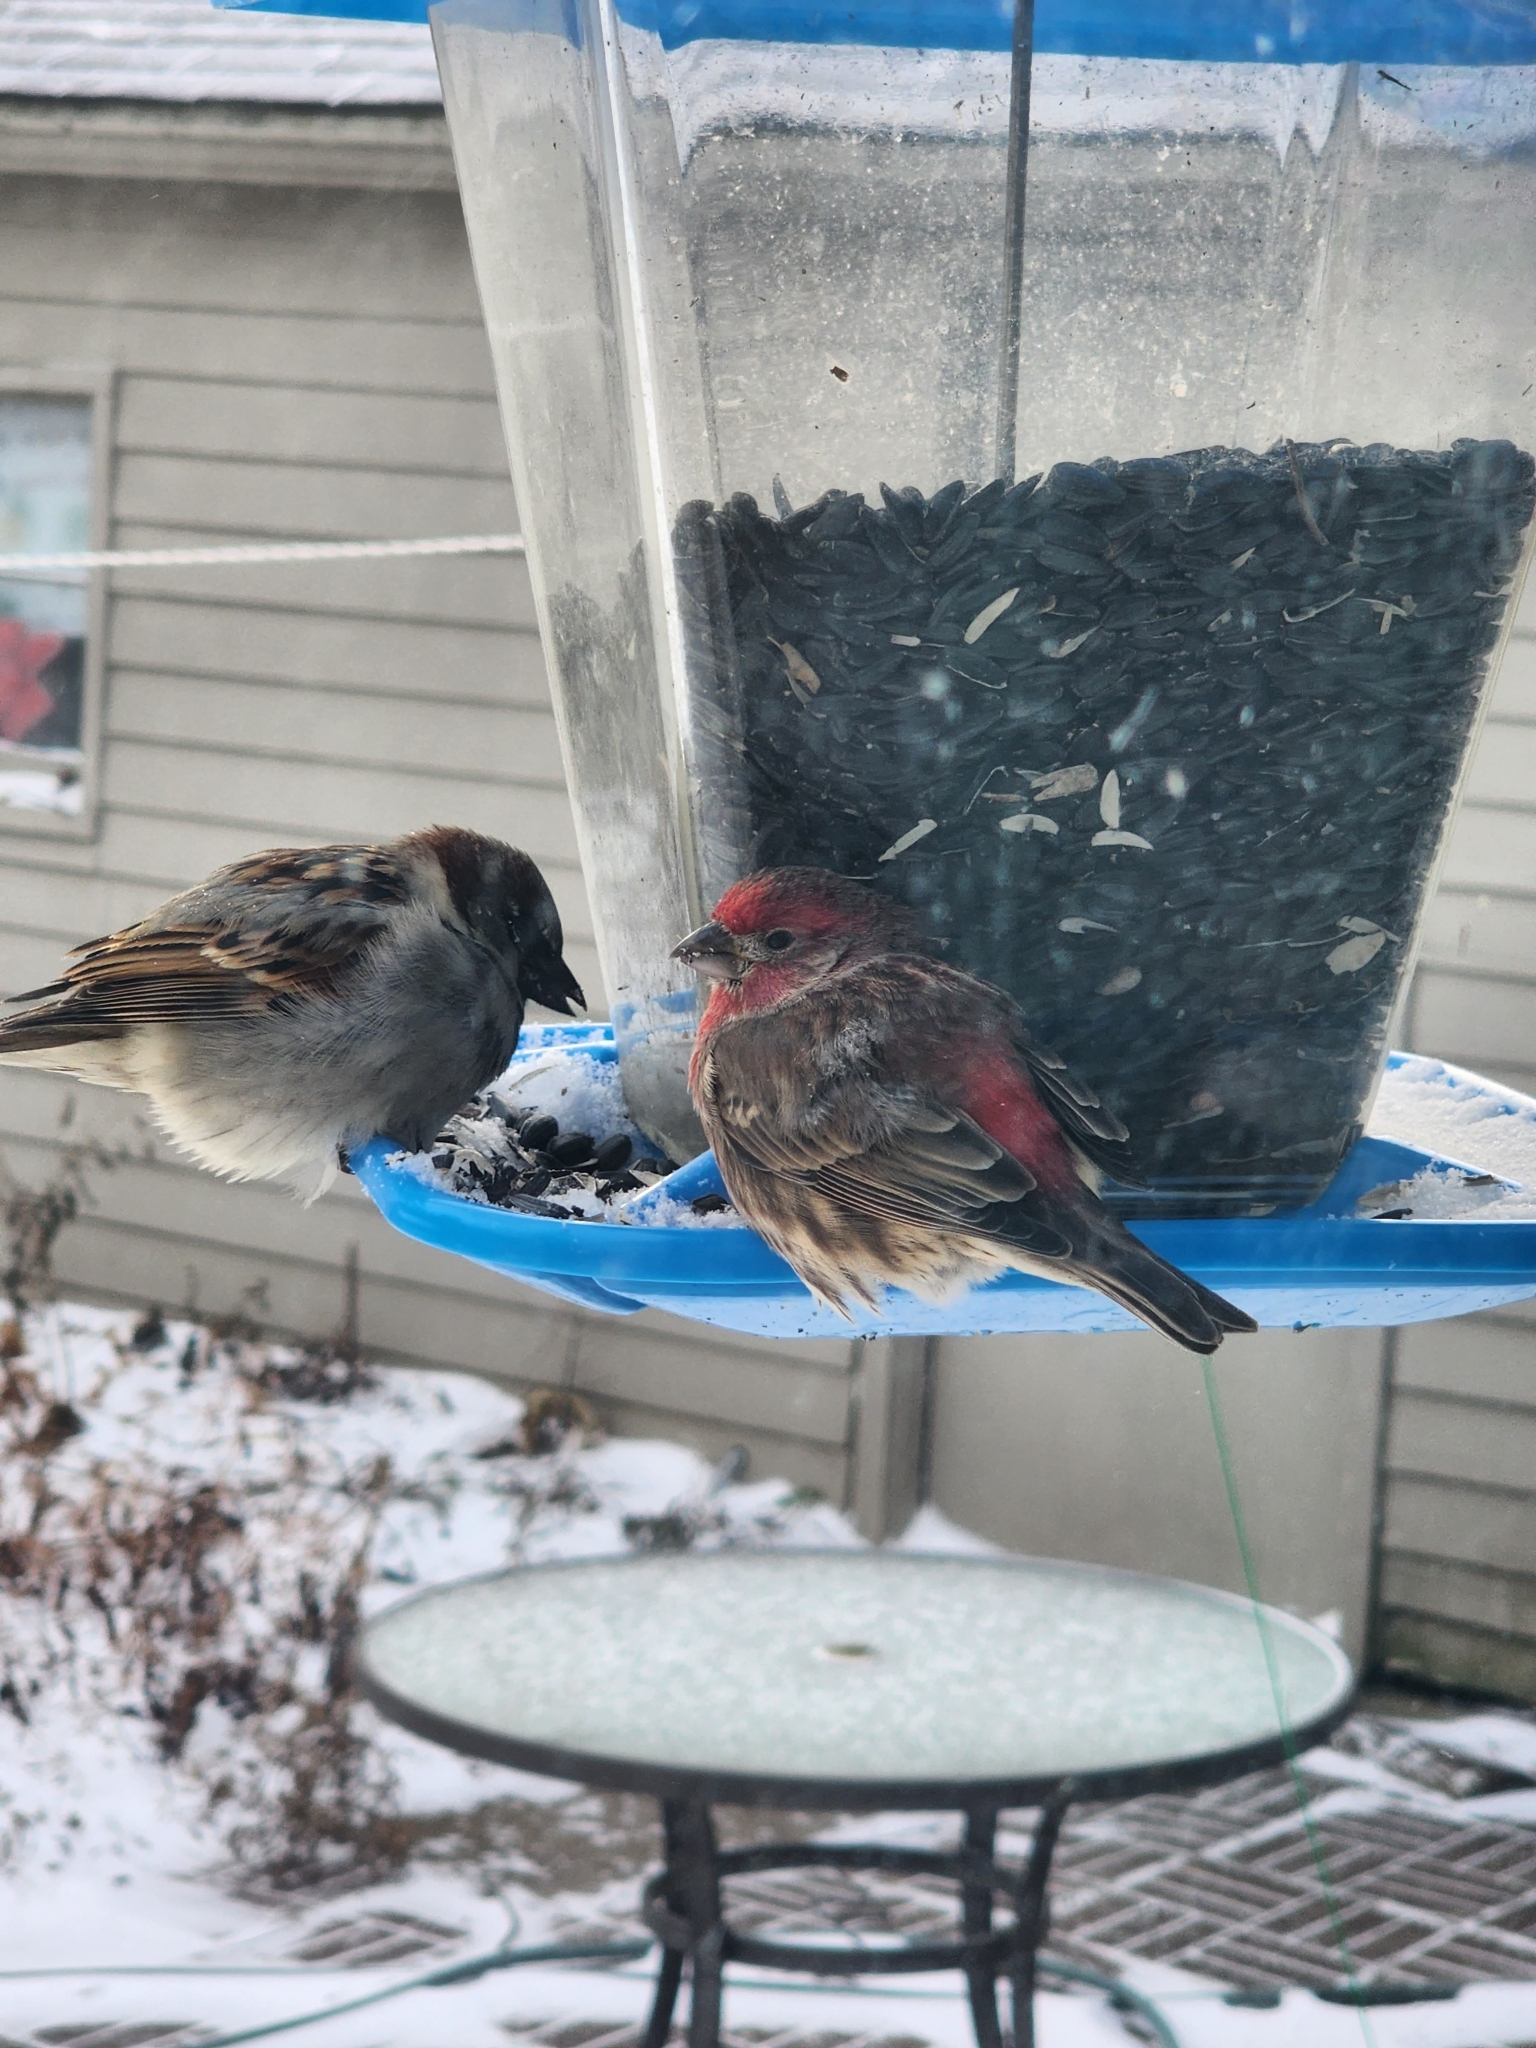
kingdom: Animalia
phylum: Chordata
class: Aves
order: Passeriformes
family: Fringillidae
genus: Haemorhous
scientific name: Haemorhous mexicanus
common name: House finch
